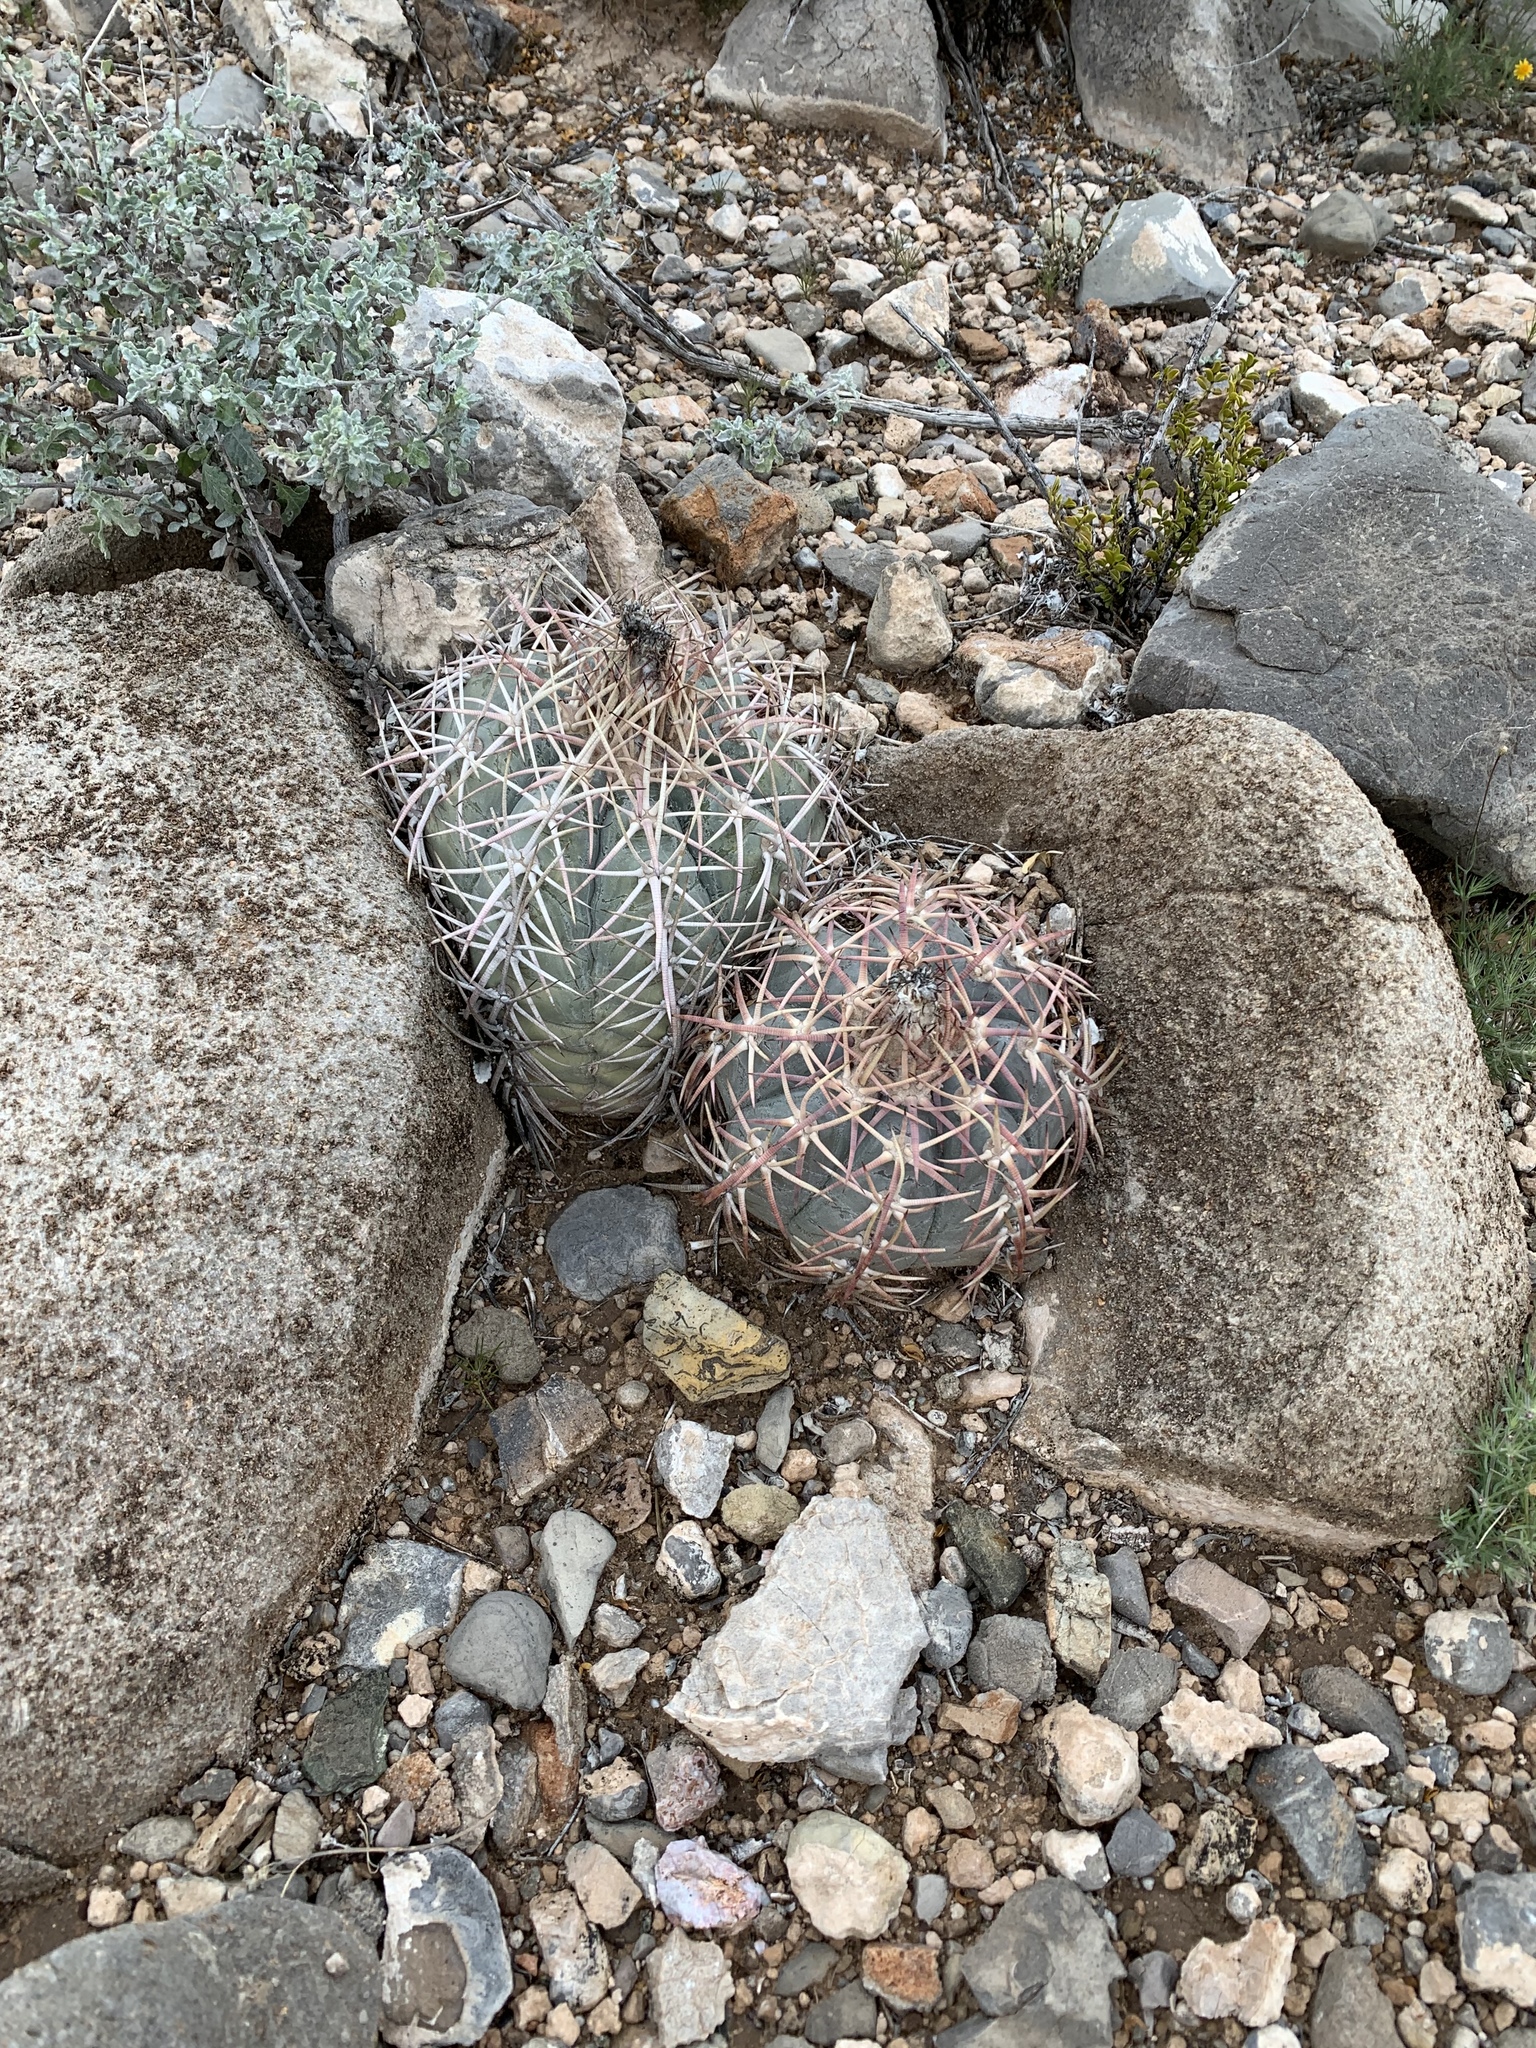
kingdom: Plantae
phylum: Tracheophyta
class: Magnoliopsida
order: Caryophyllales
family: Cactaceae
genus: Echinocactus
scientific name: Echinocactus horizonthalonius
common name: Devilshead
